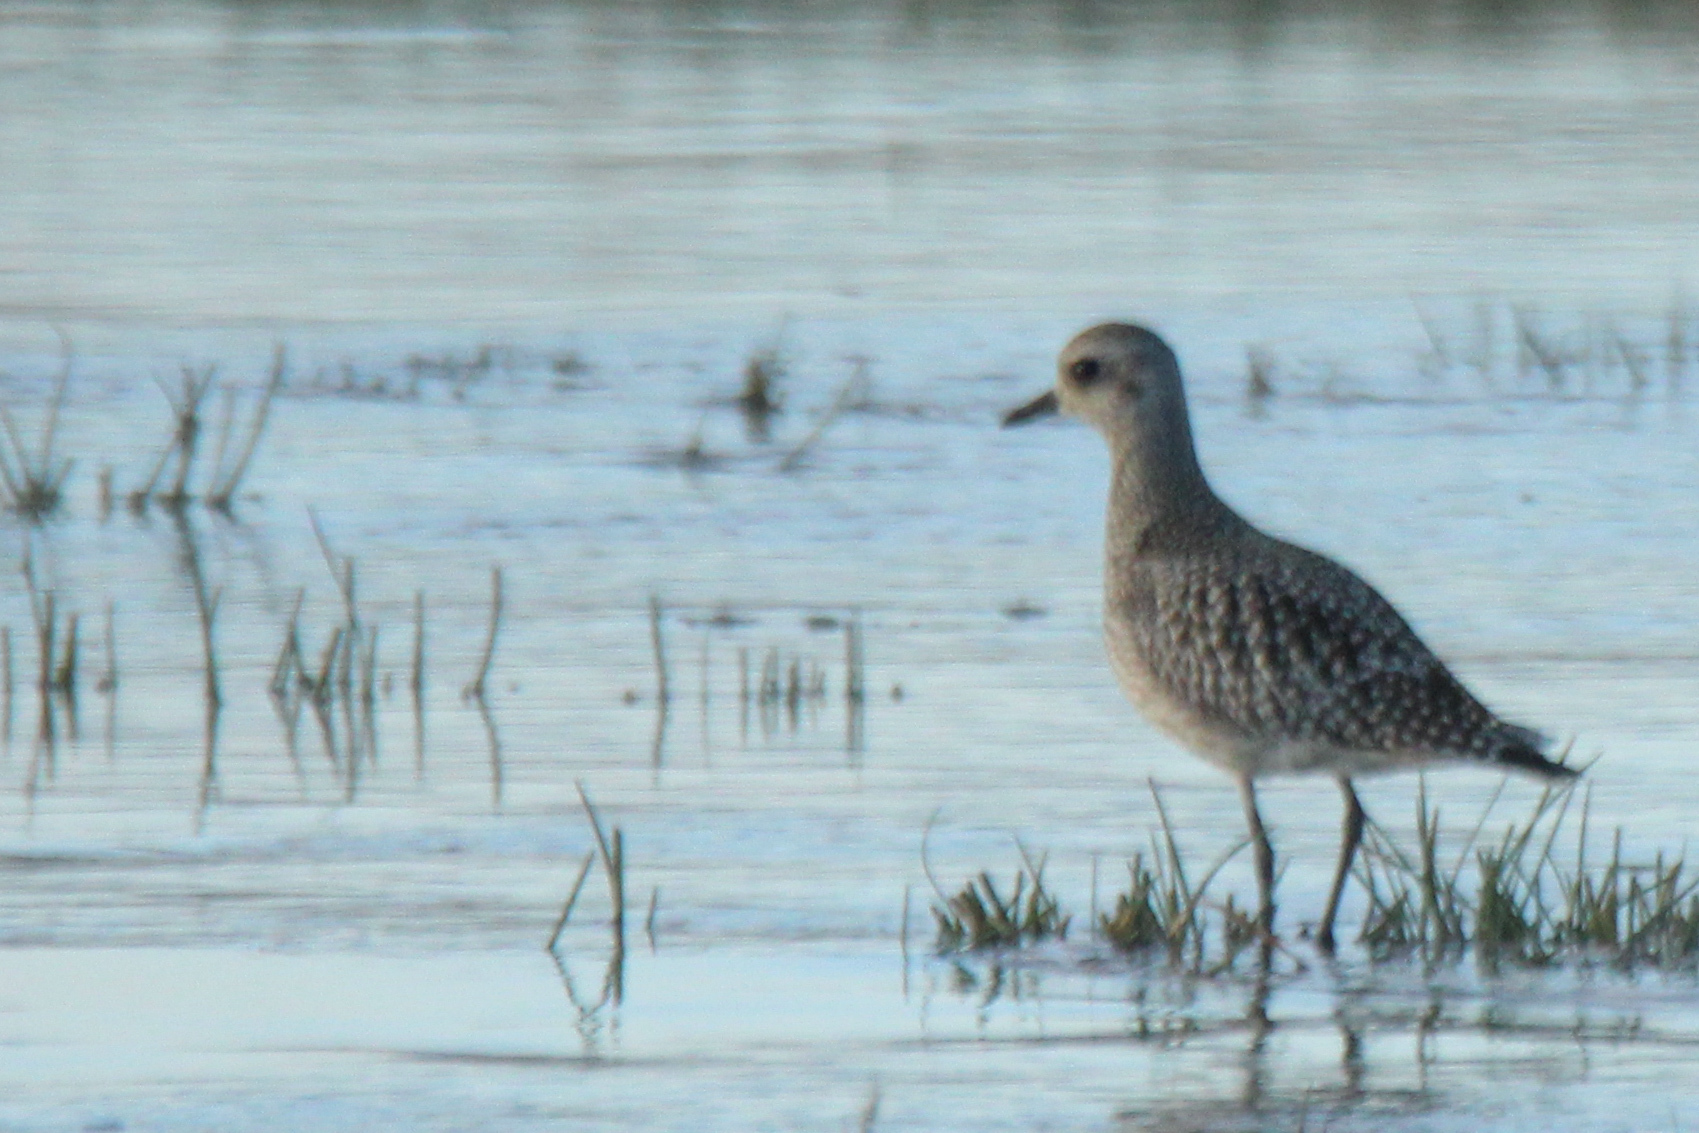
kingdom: Animalia
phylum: Chordata
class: Aves
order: Charadriiformes
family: Charadriidae
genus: Pluvialis
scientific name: Pluvialis squatarola
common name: Grey plover
